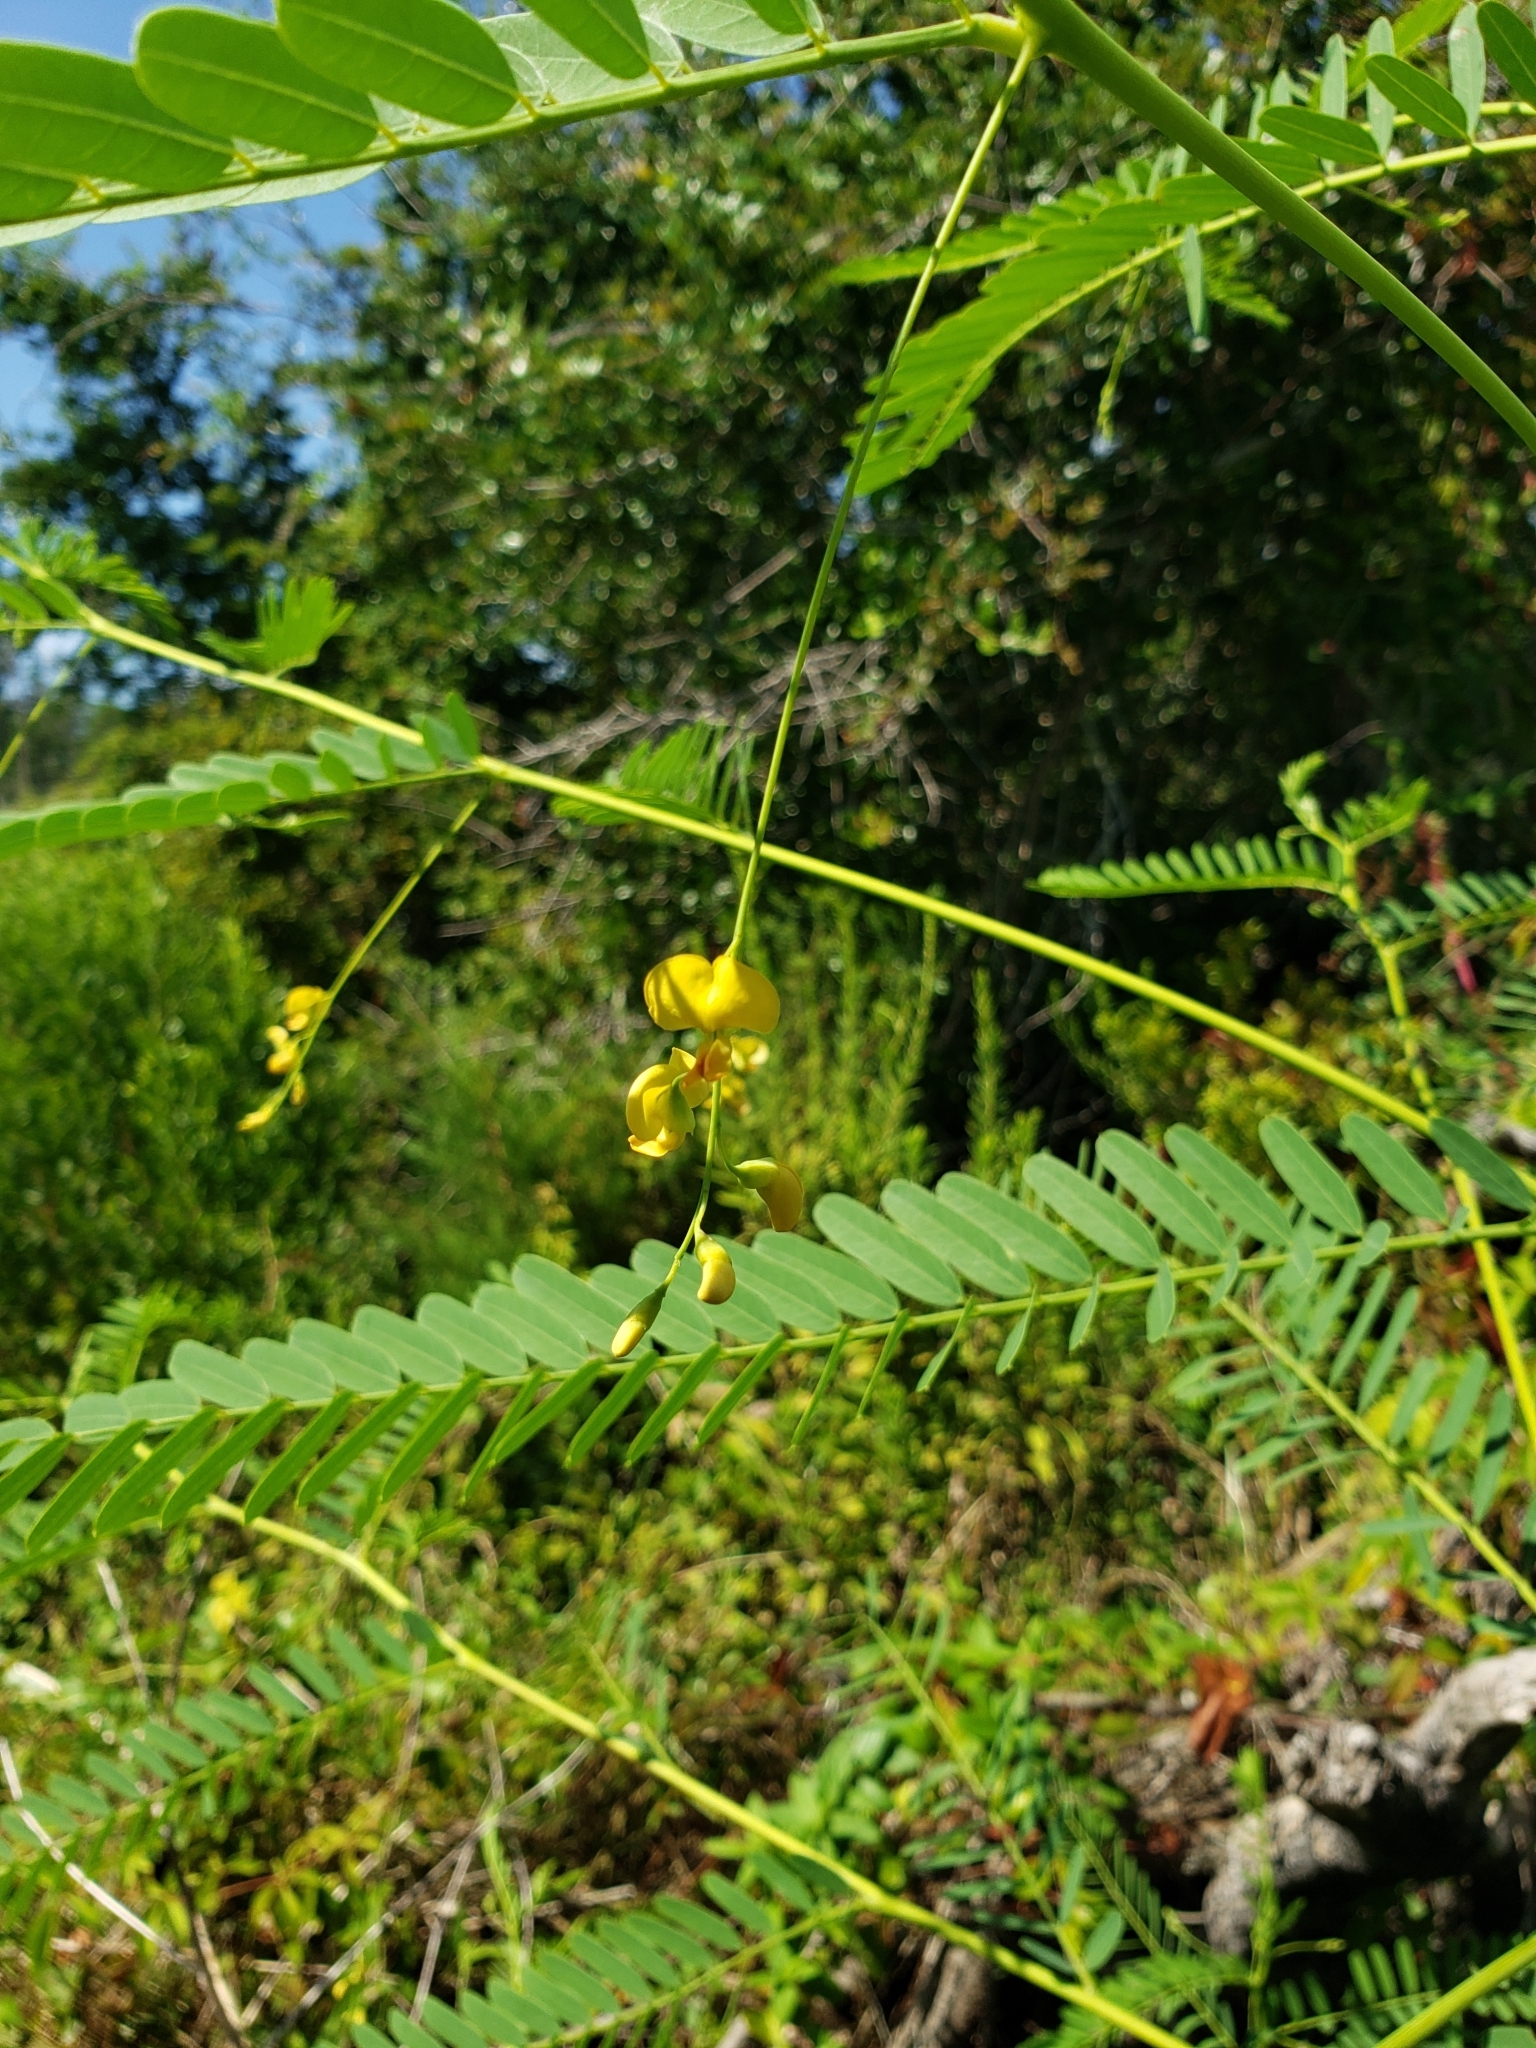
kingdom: Plantae
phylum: Tracheophyta
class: Magnoliopsida
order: Fabales
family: Fabaceae
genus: Sesbania
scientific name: Sesbania herbacea
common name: Bigpod sesbania
